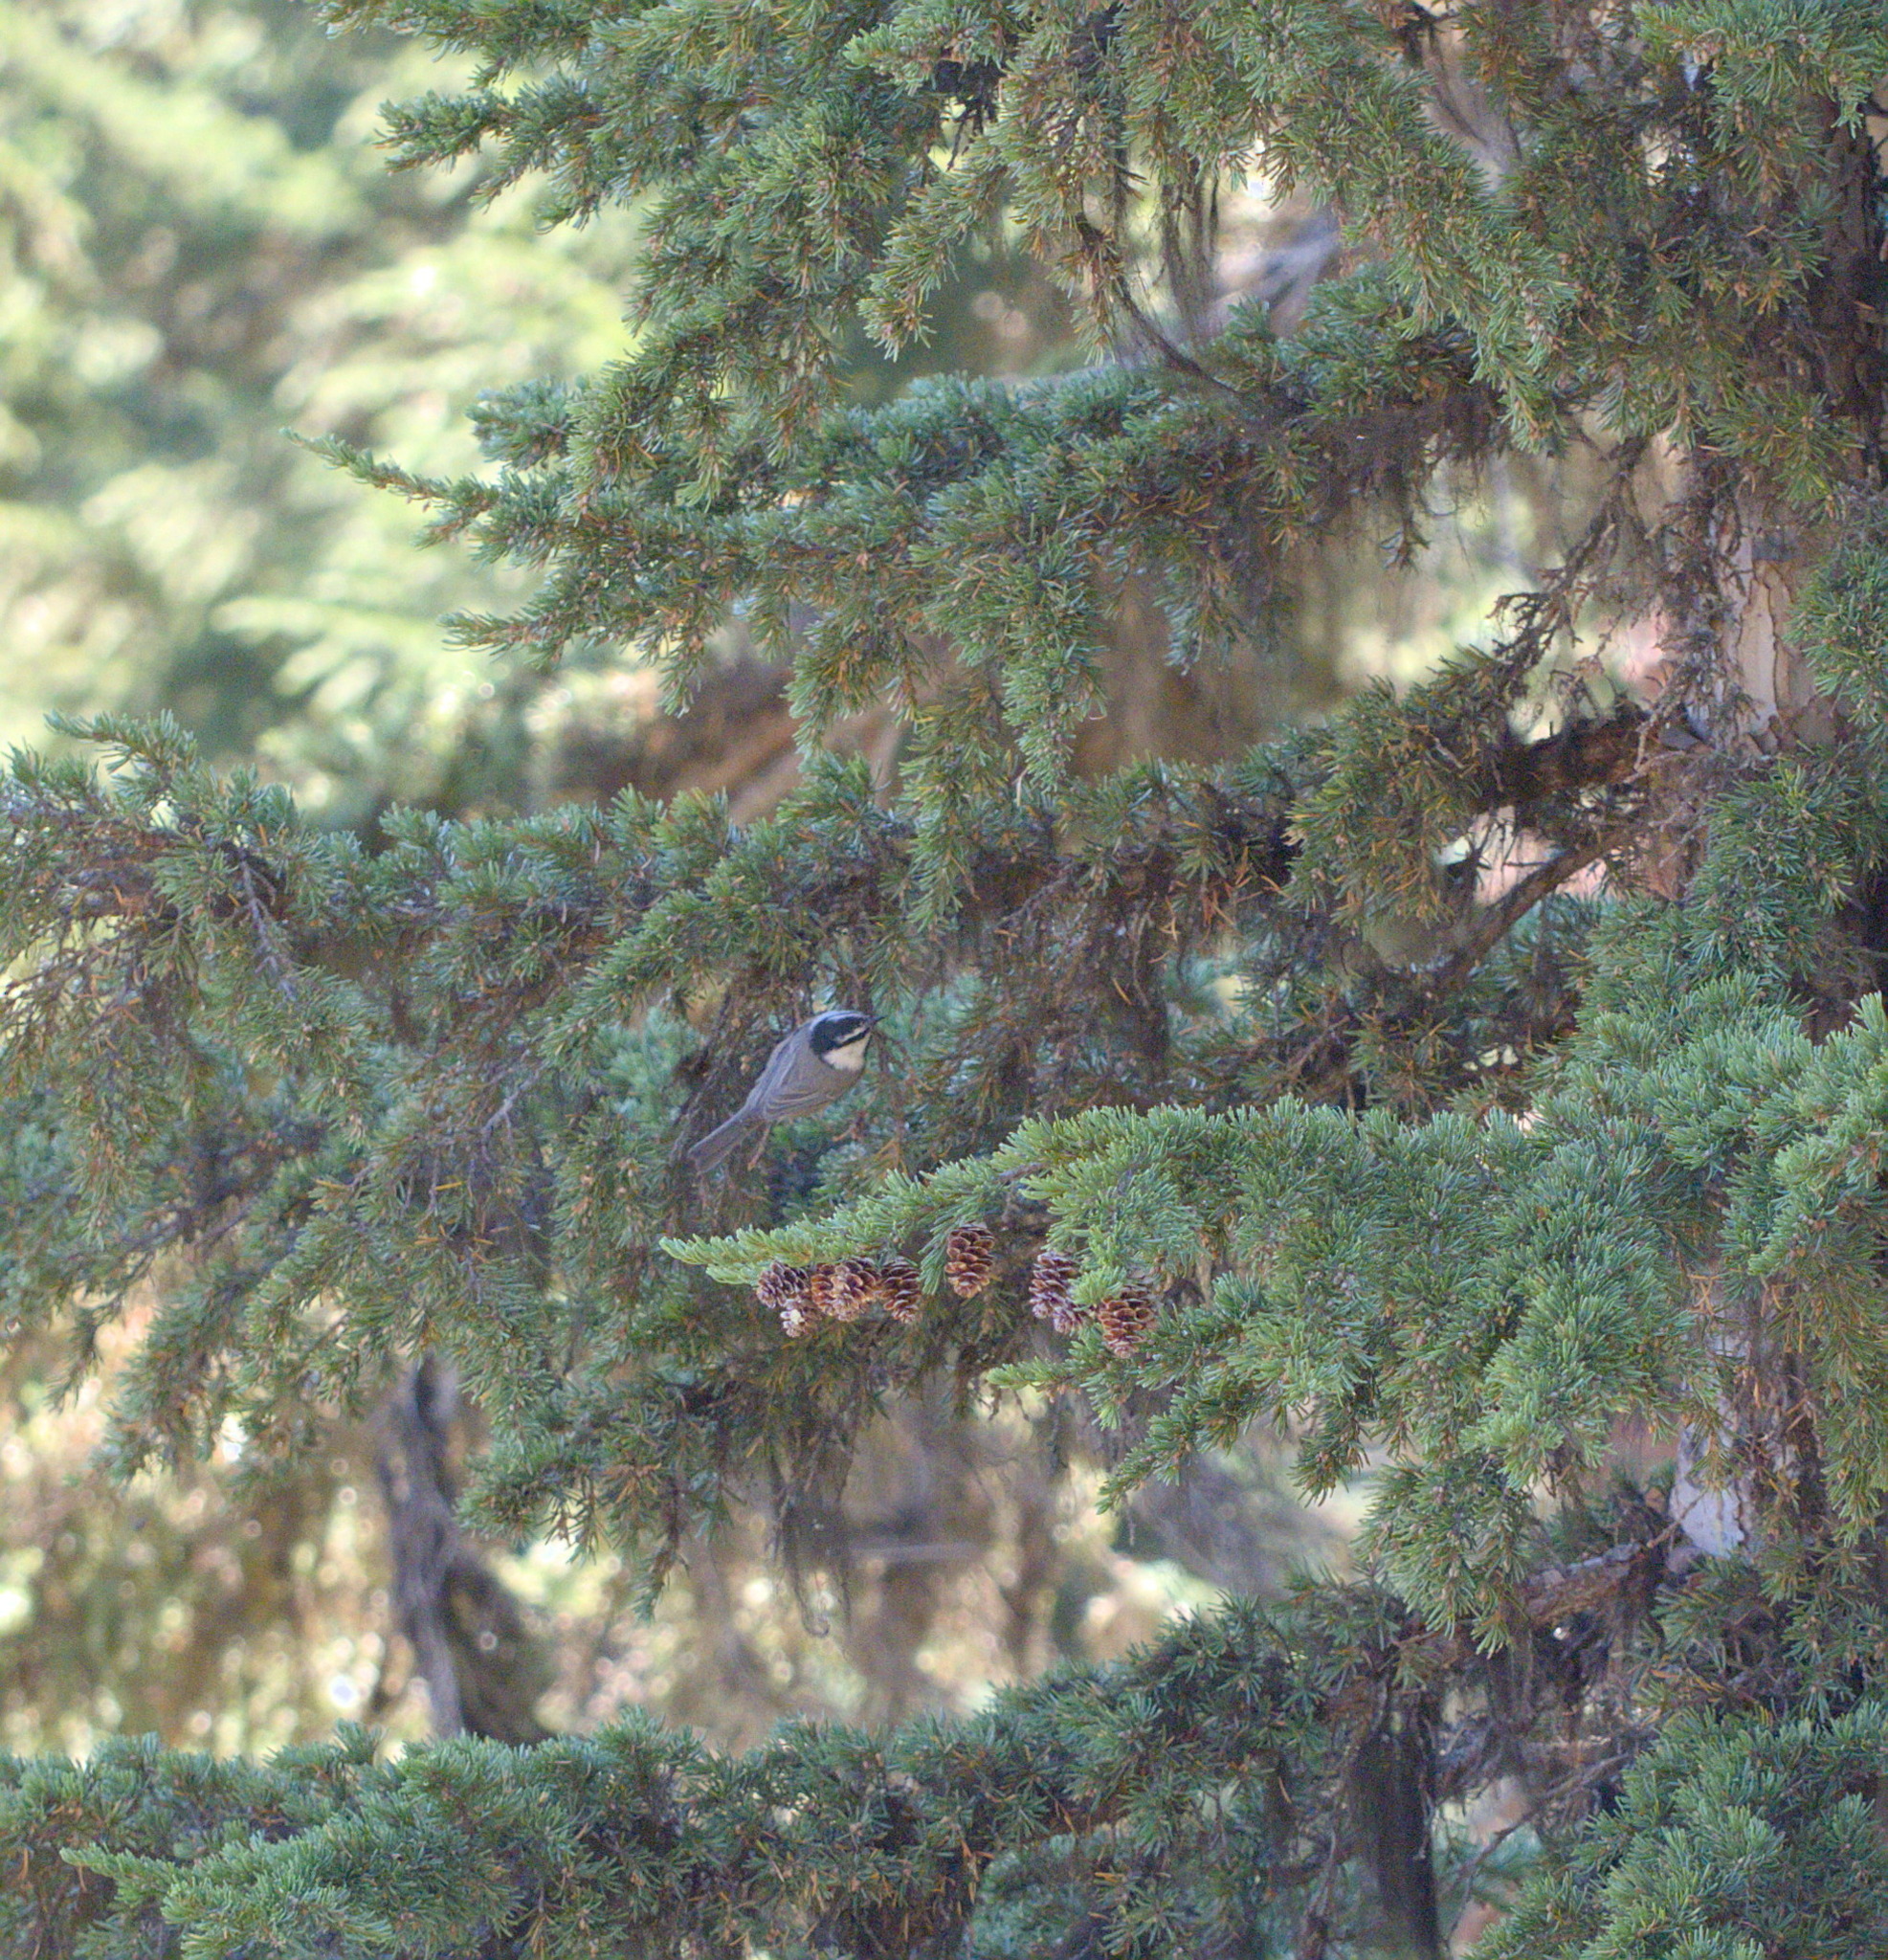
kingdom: Animalia
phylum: Chordata
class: Aves
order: Passeriformes
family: Paridae
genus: Poecile
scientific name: Poecile gambeli
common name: Mountain chickadee
